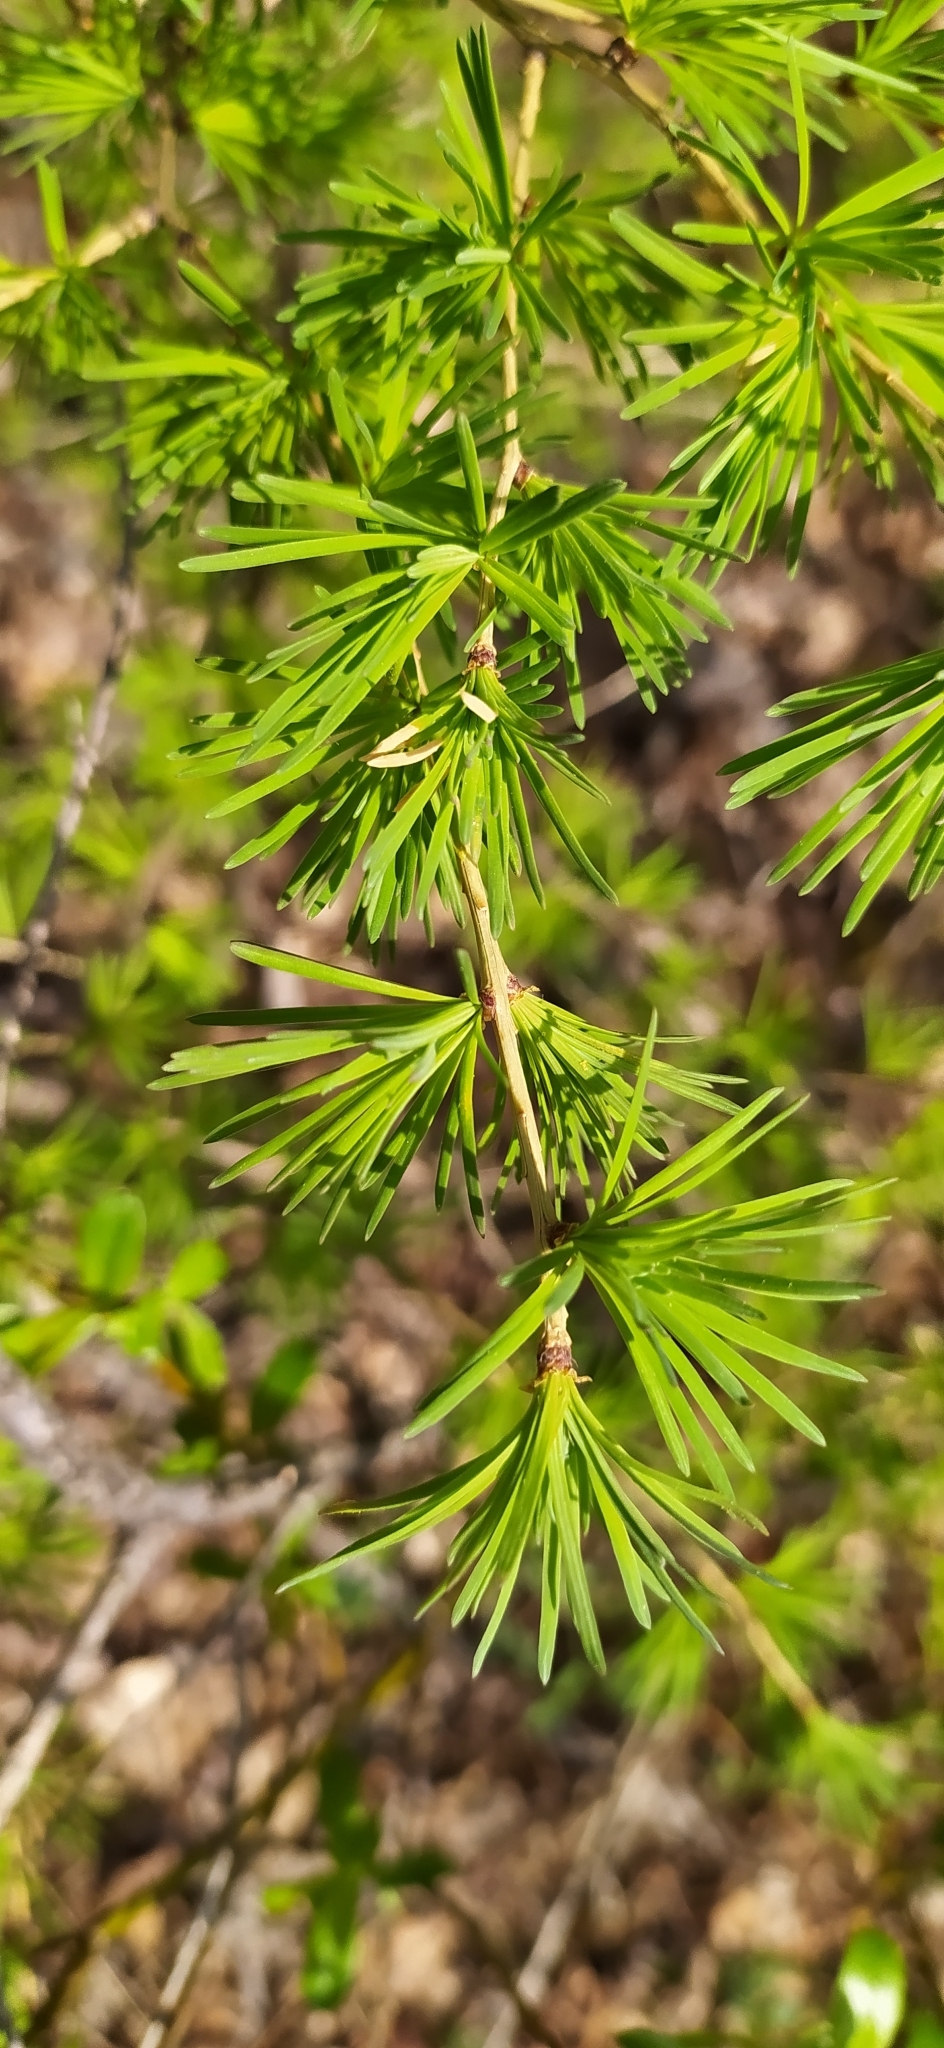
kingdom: Plantae
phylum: Tracheophyta
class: Pinopsida
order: Pinales
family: Pinaceae
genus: Larix
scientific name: Larix sibirica
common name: Siberian larch
